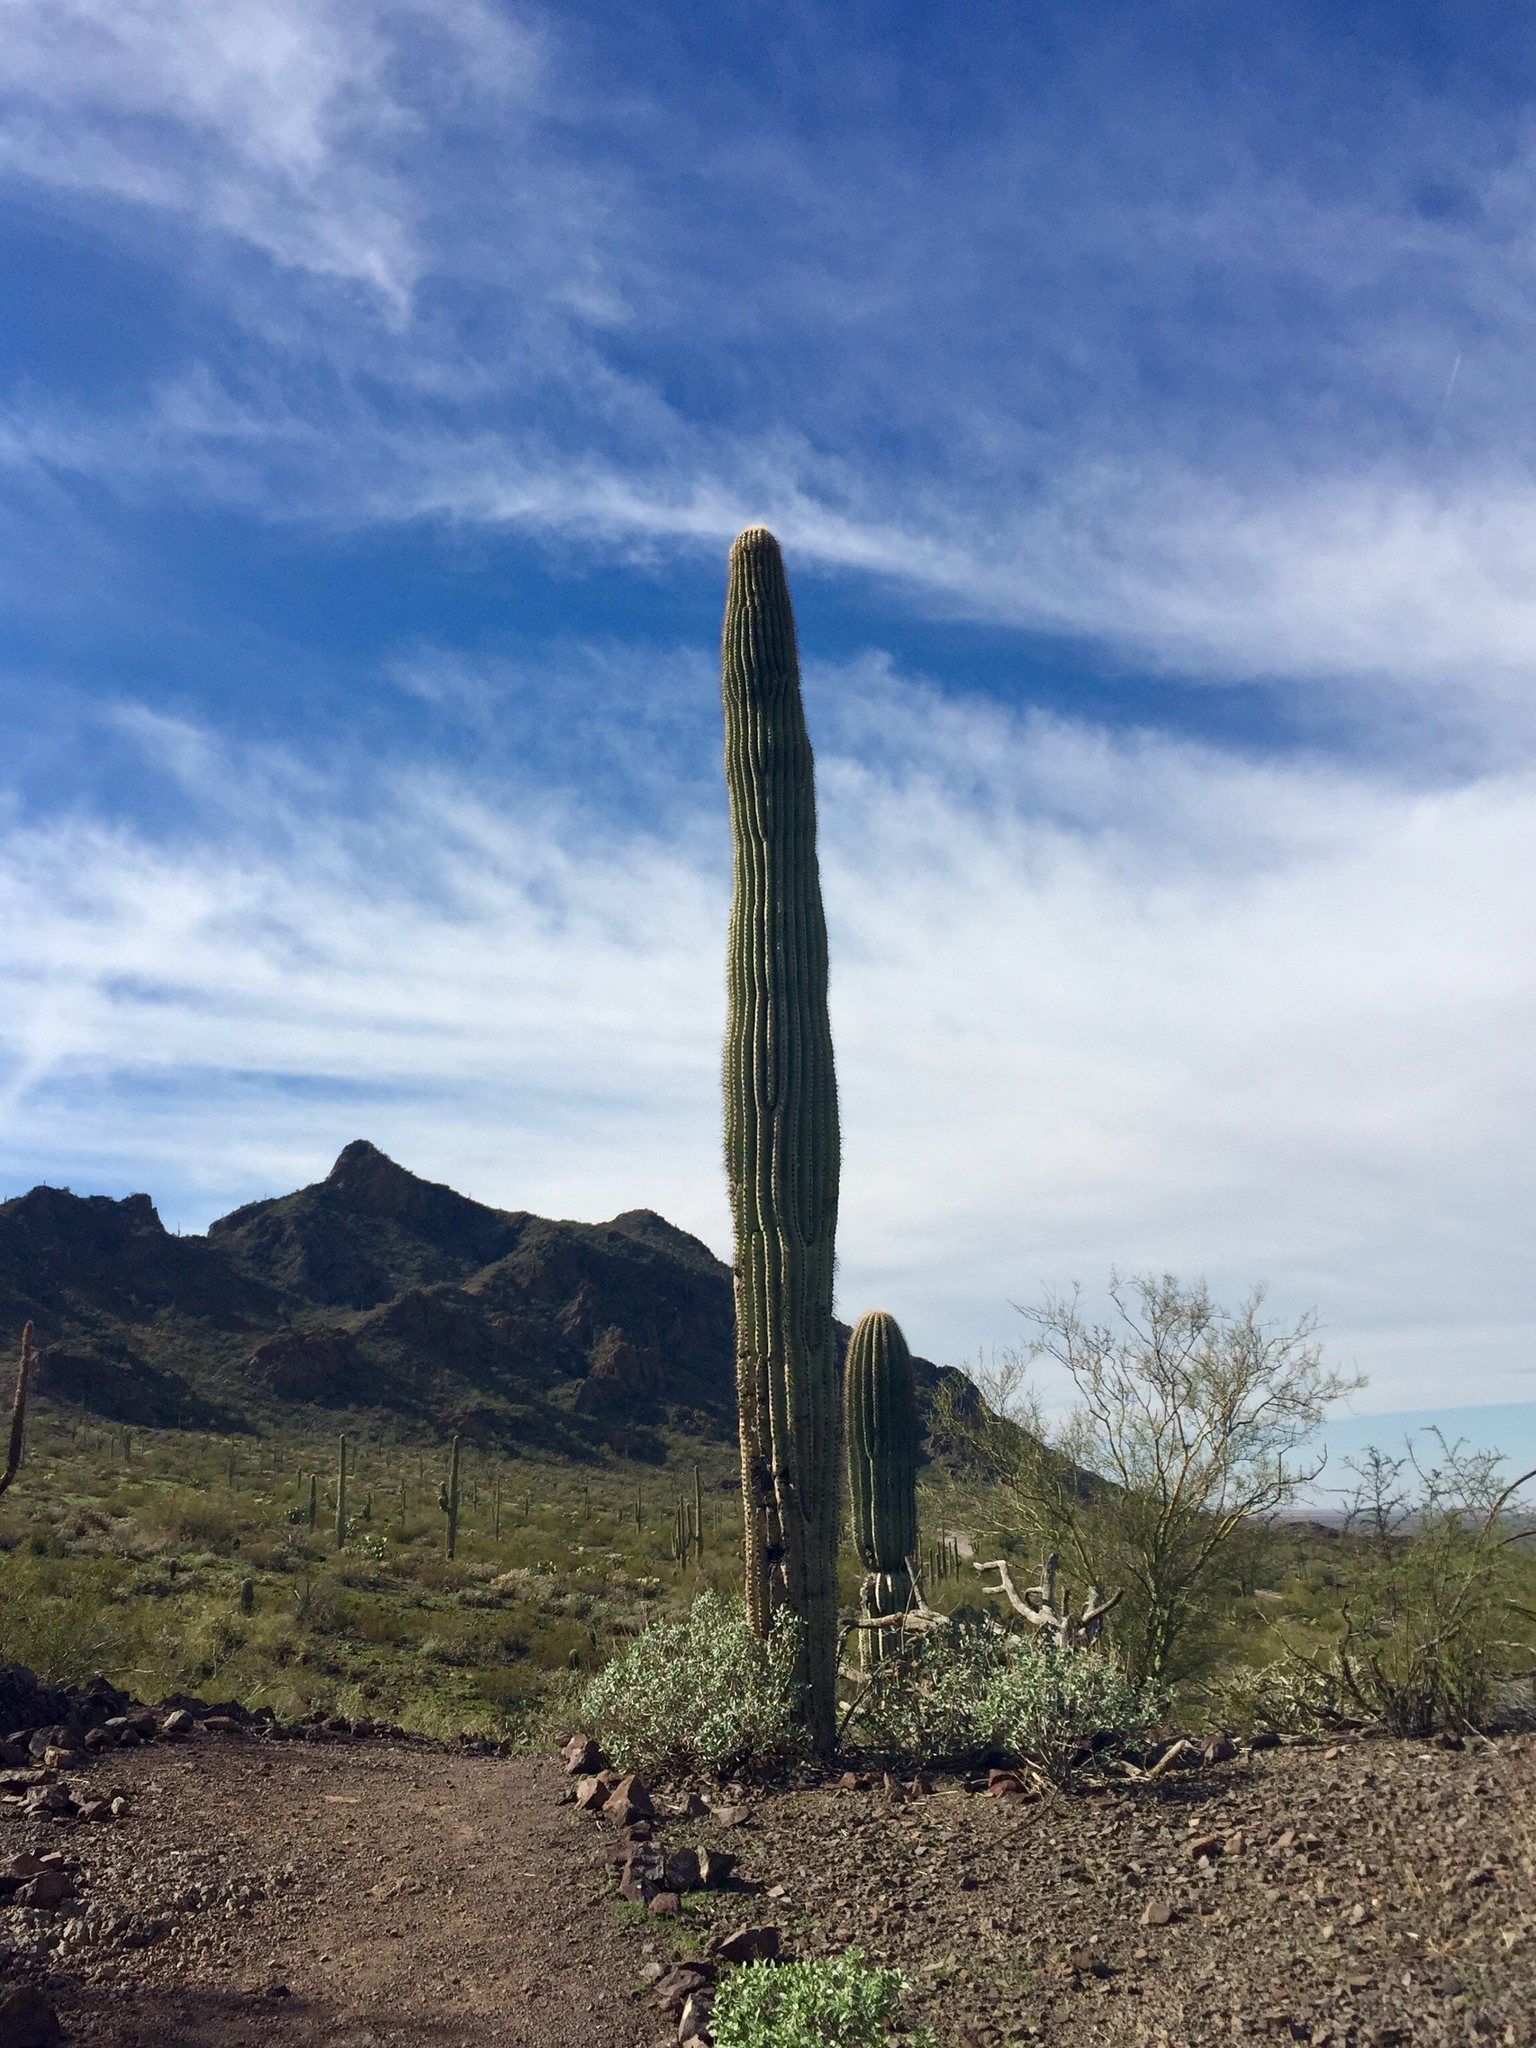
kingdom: Plantae
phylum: Tracheophyta
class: Magnoliopsida
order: Caryophyllales
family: Cactaceae
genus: Carnegiea
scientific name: Carnegiea gigantea
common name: Saguaro
